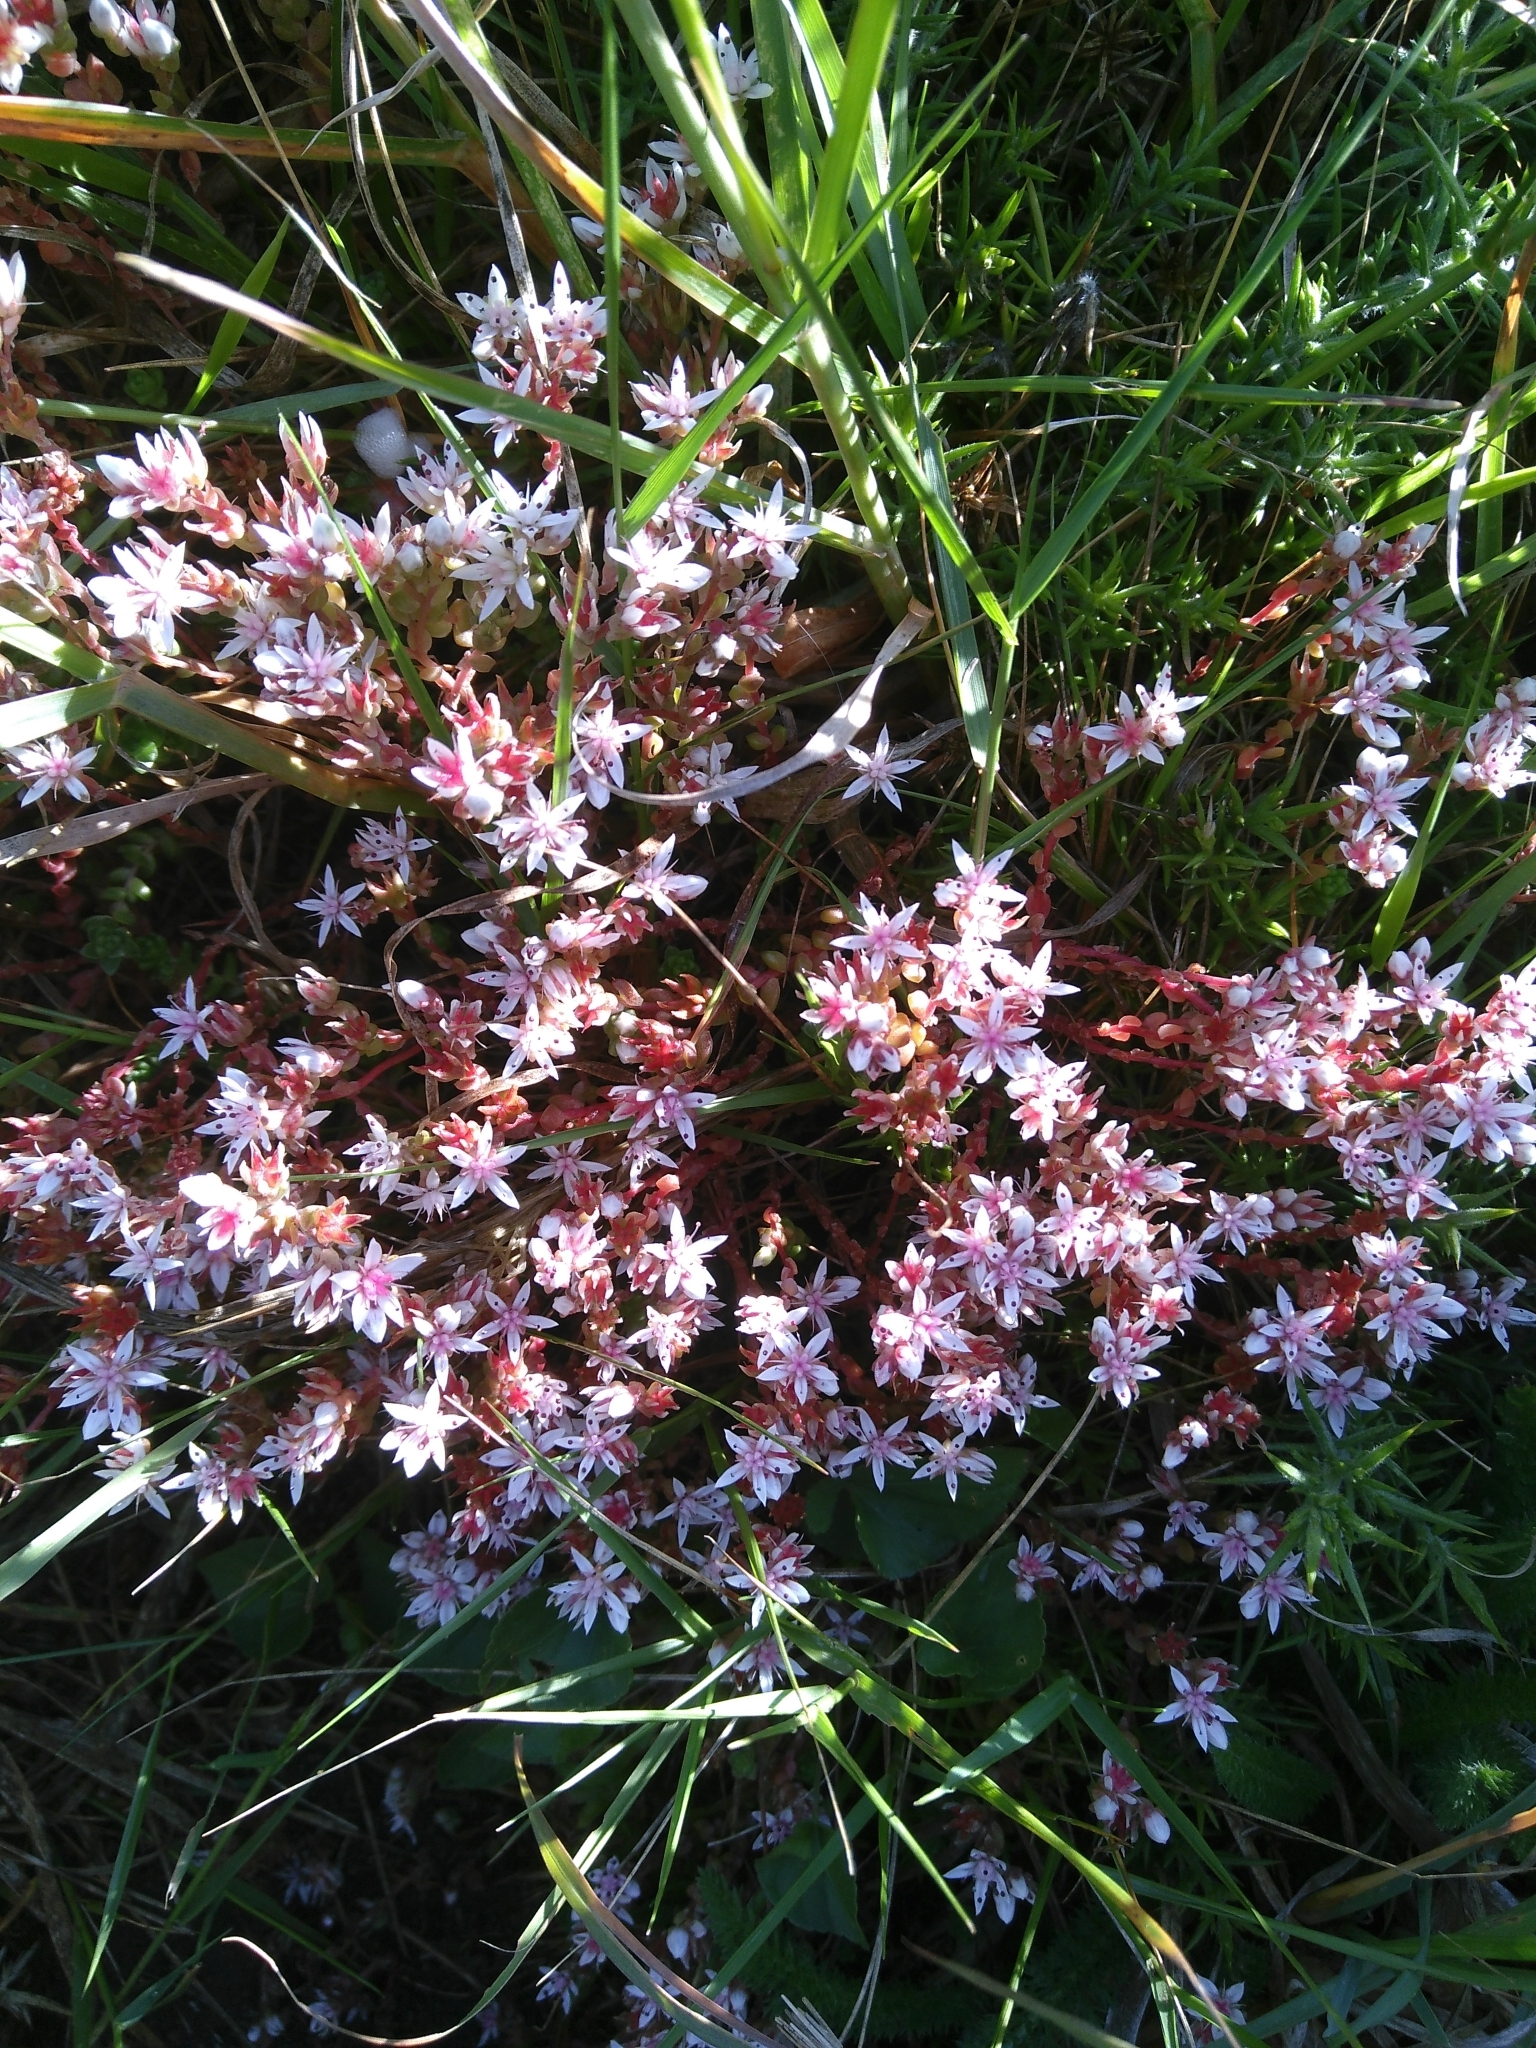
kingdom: Plantae
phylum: Tracheophyta
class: Magnoliopsida
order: Saxifragales
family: Crassulaceae
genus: Sedum
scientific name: Sedum anglicum
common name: English stonecrop
